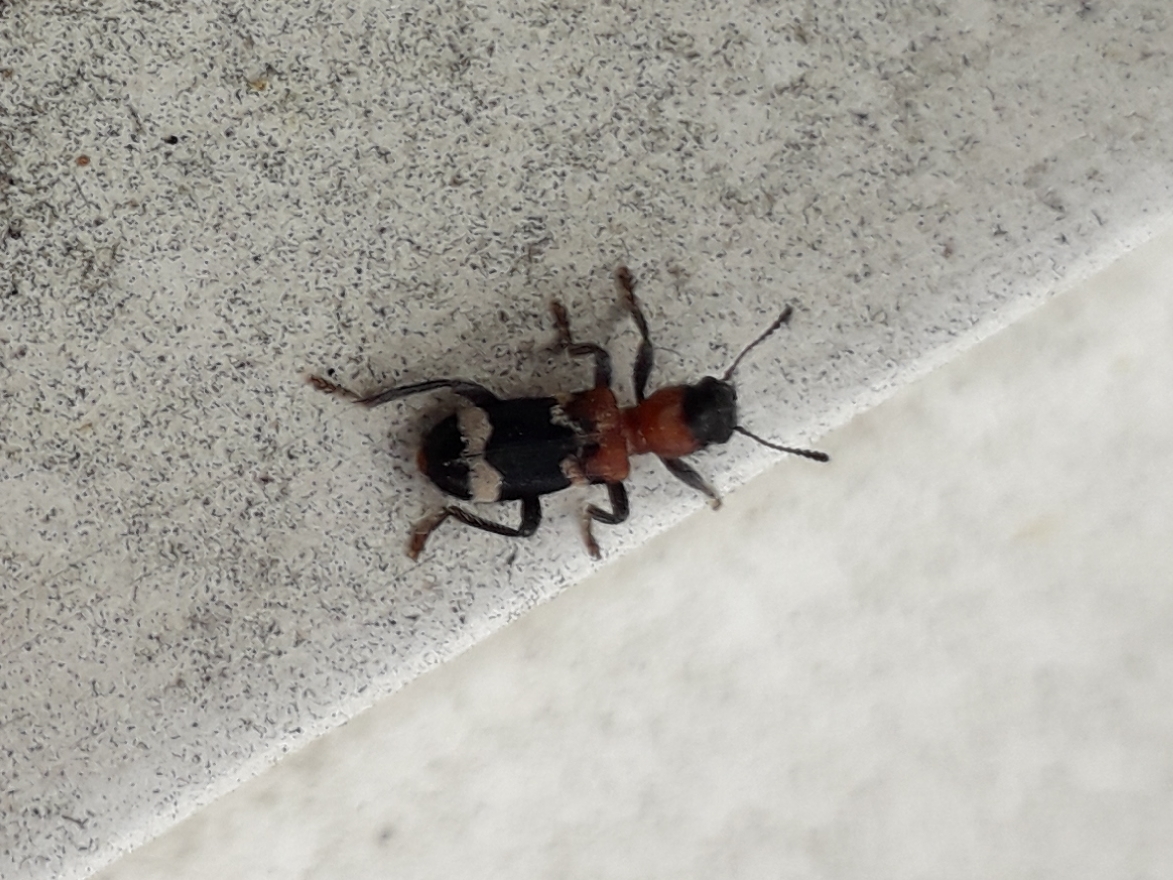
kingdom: Animalia
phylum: Arthropoda
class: Insecta
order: Coleoptera
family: Cleridae
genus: Thanasimus
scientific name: Thanasimus formicarius
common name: Ant beetle
